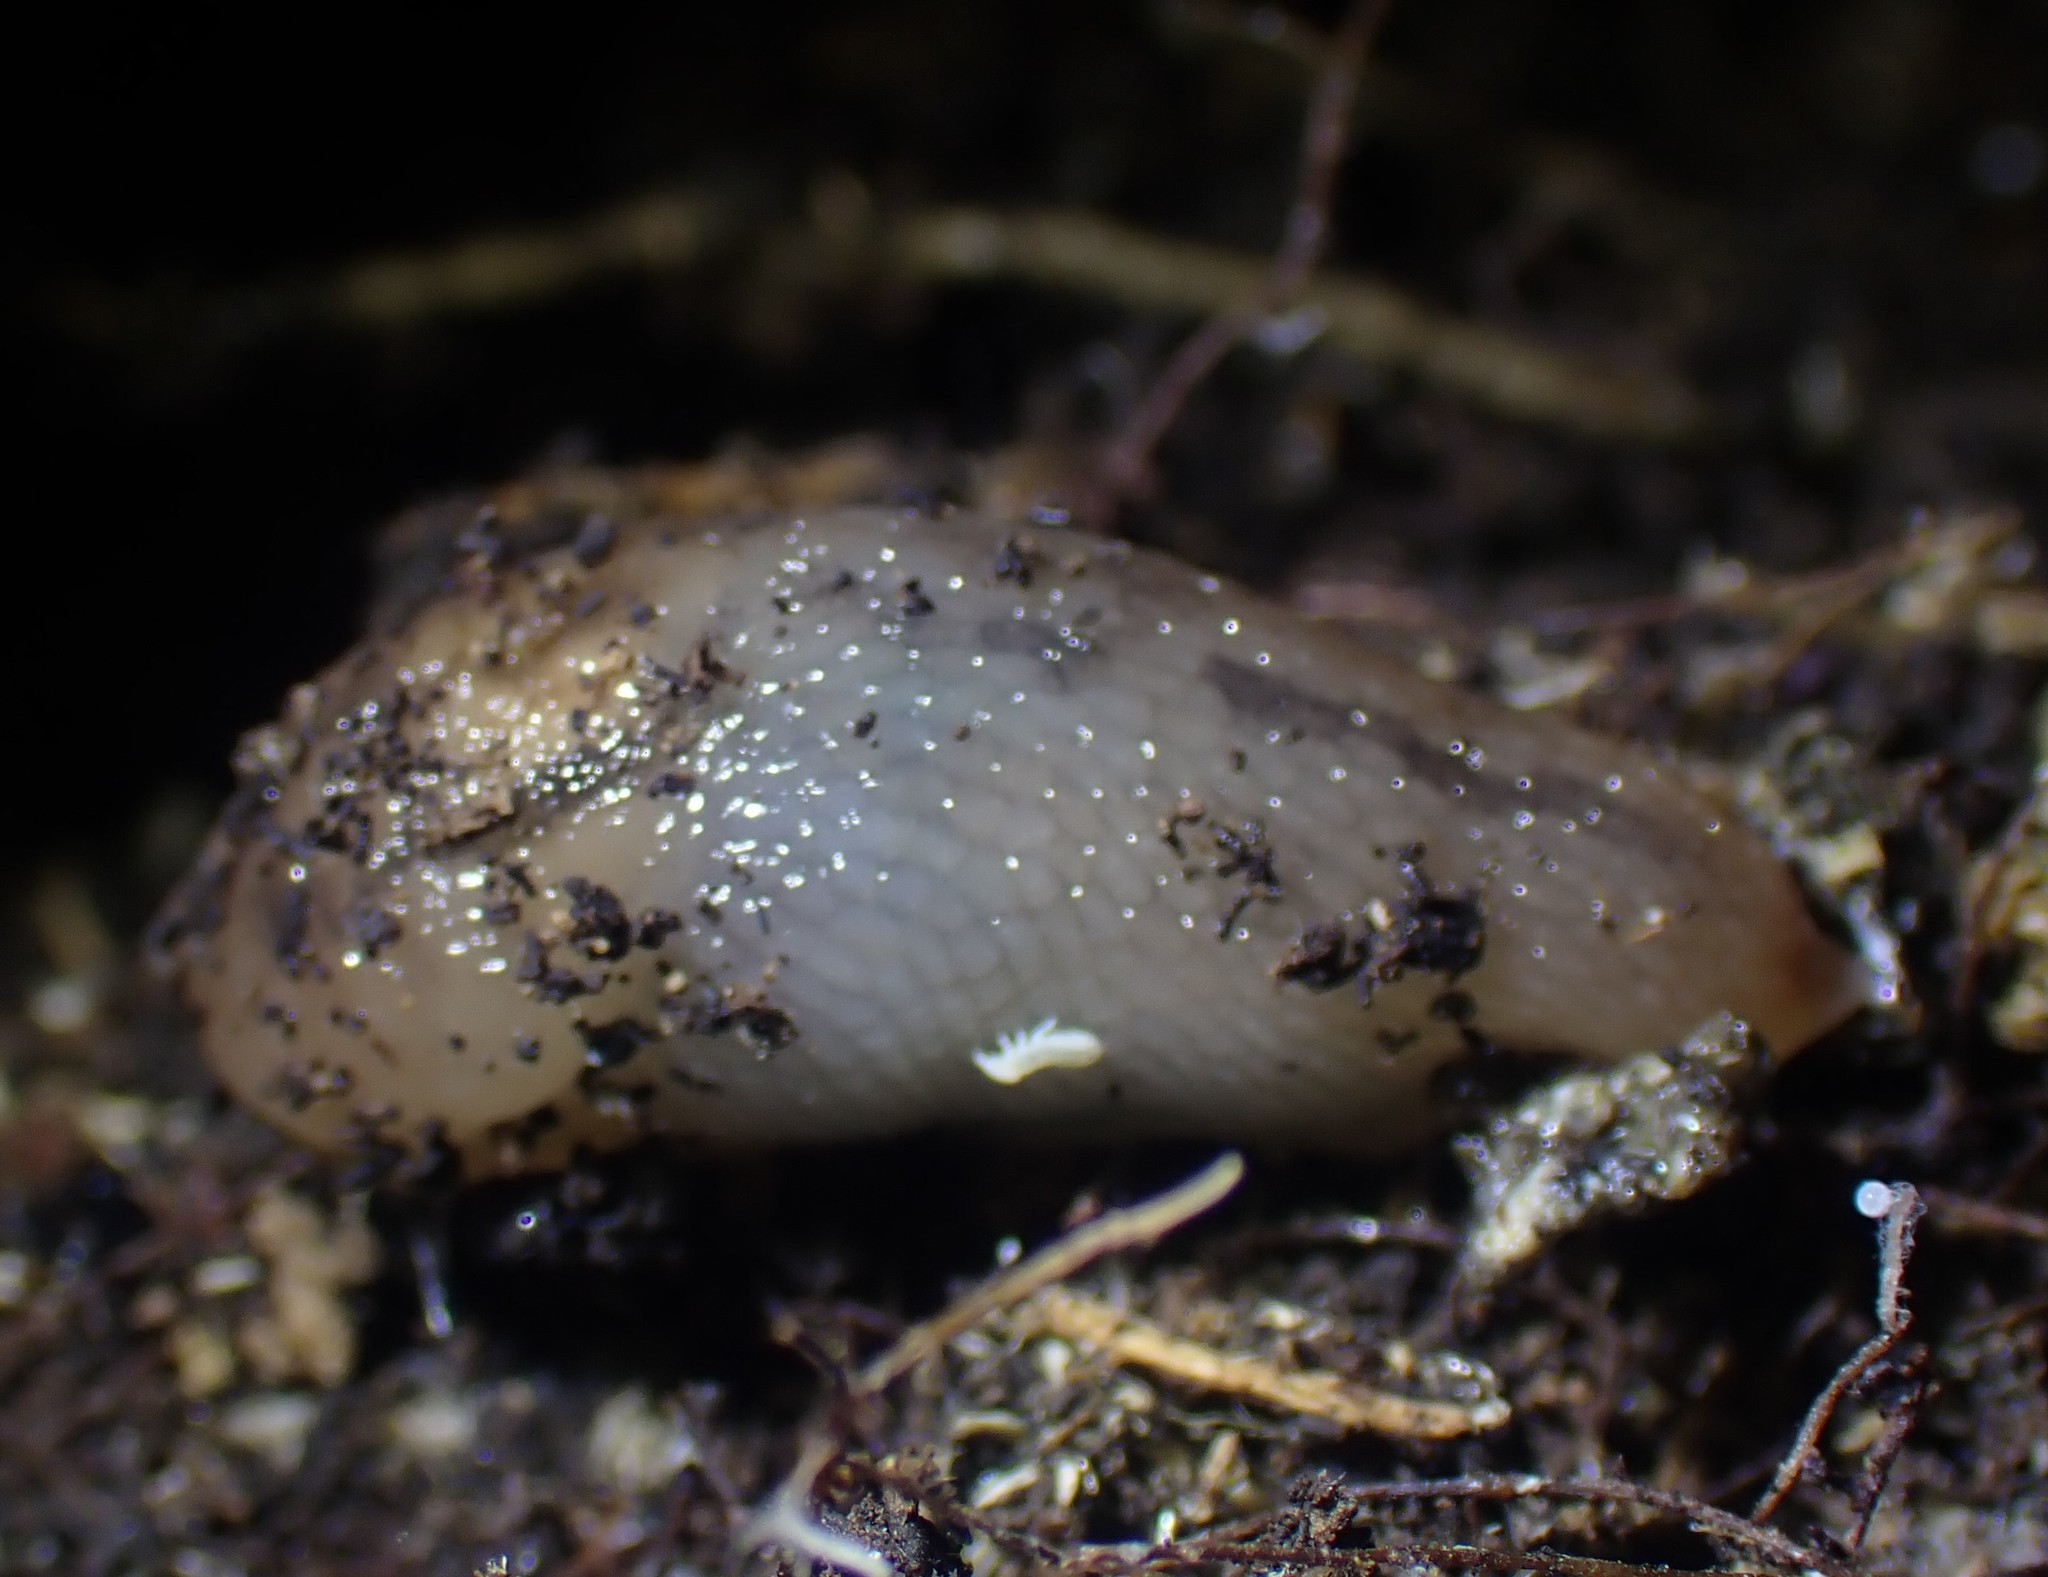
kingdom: Animalia
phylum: Mollusca
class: Gastropoda
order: Stylommatophora
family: Limacidae
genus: Ambigolimax
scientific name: Ambigolimax
